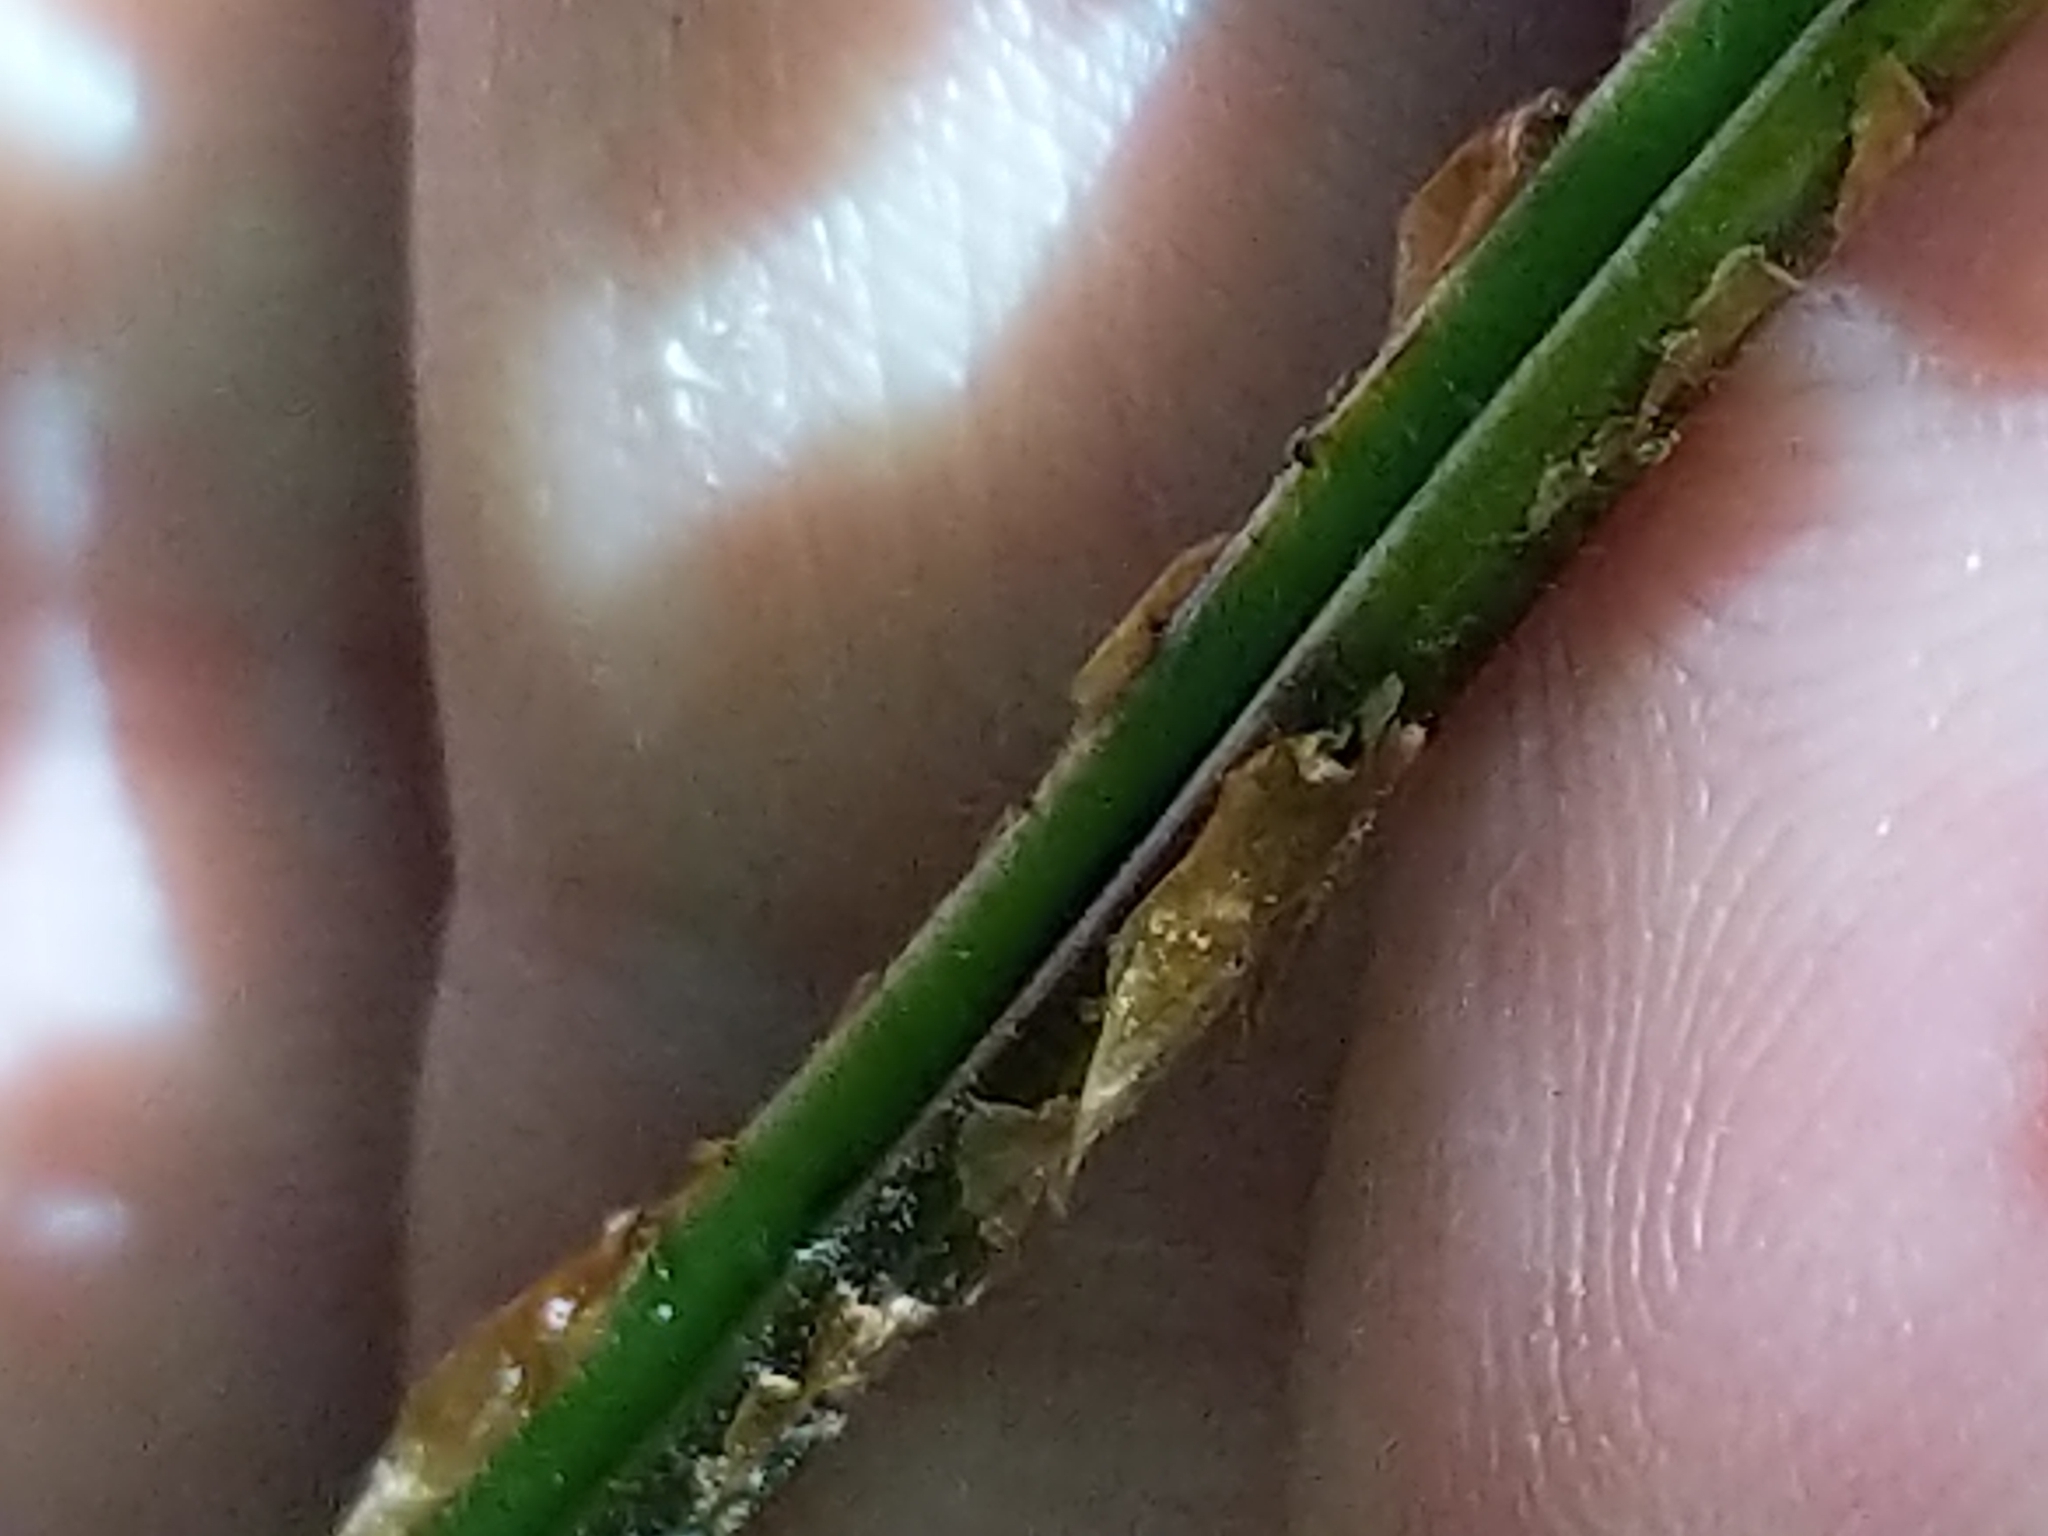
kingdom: Plantae
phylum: Tracheophyta
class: Polypodiopsida
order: Polypodiales
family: Dryopteridaceae
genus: Dryopteris
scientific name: Dryopteris intermedia
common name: Evergreen wood fern
